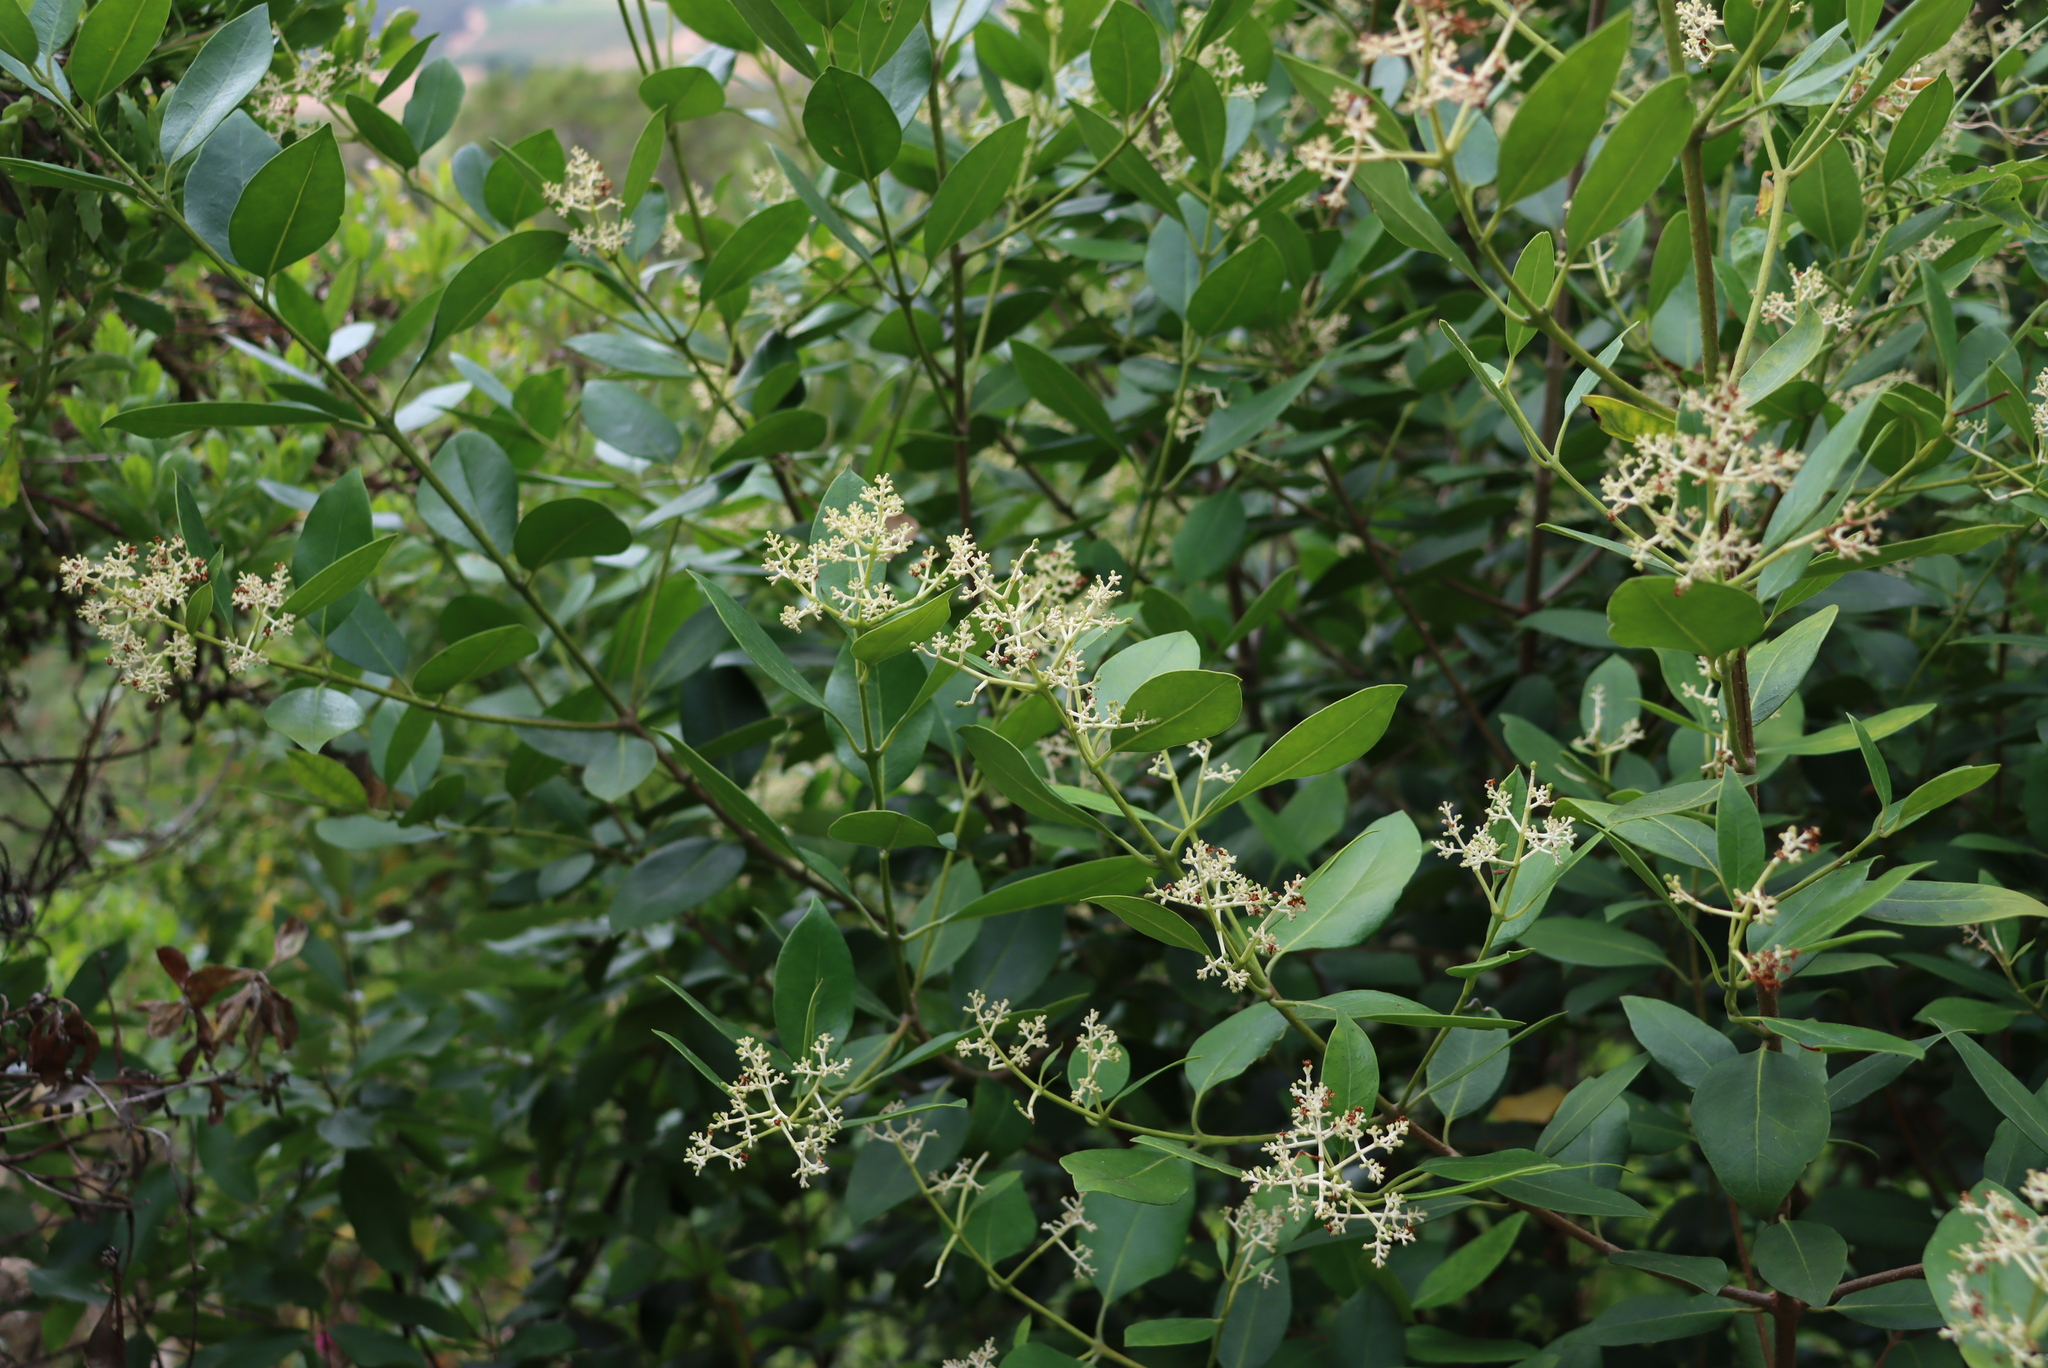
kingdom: Plantae
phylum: Tracheophyta
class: Magnoliopsida
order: Lamiales
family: Oleaceae
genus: Olea
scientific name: Olea capensis
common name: Black ironwood
